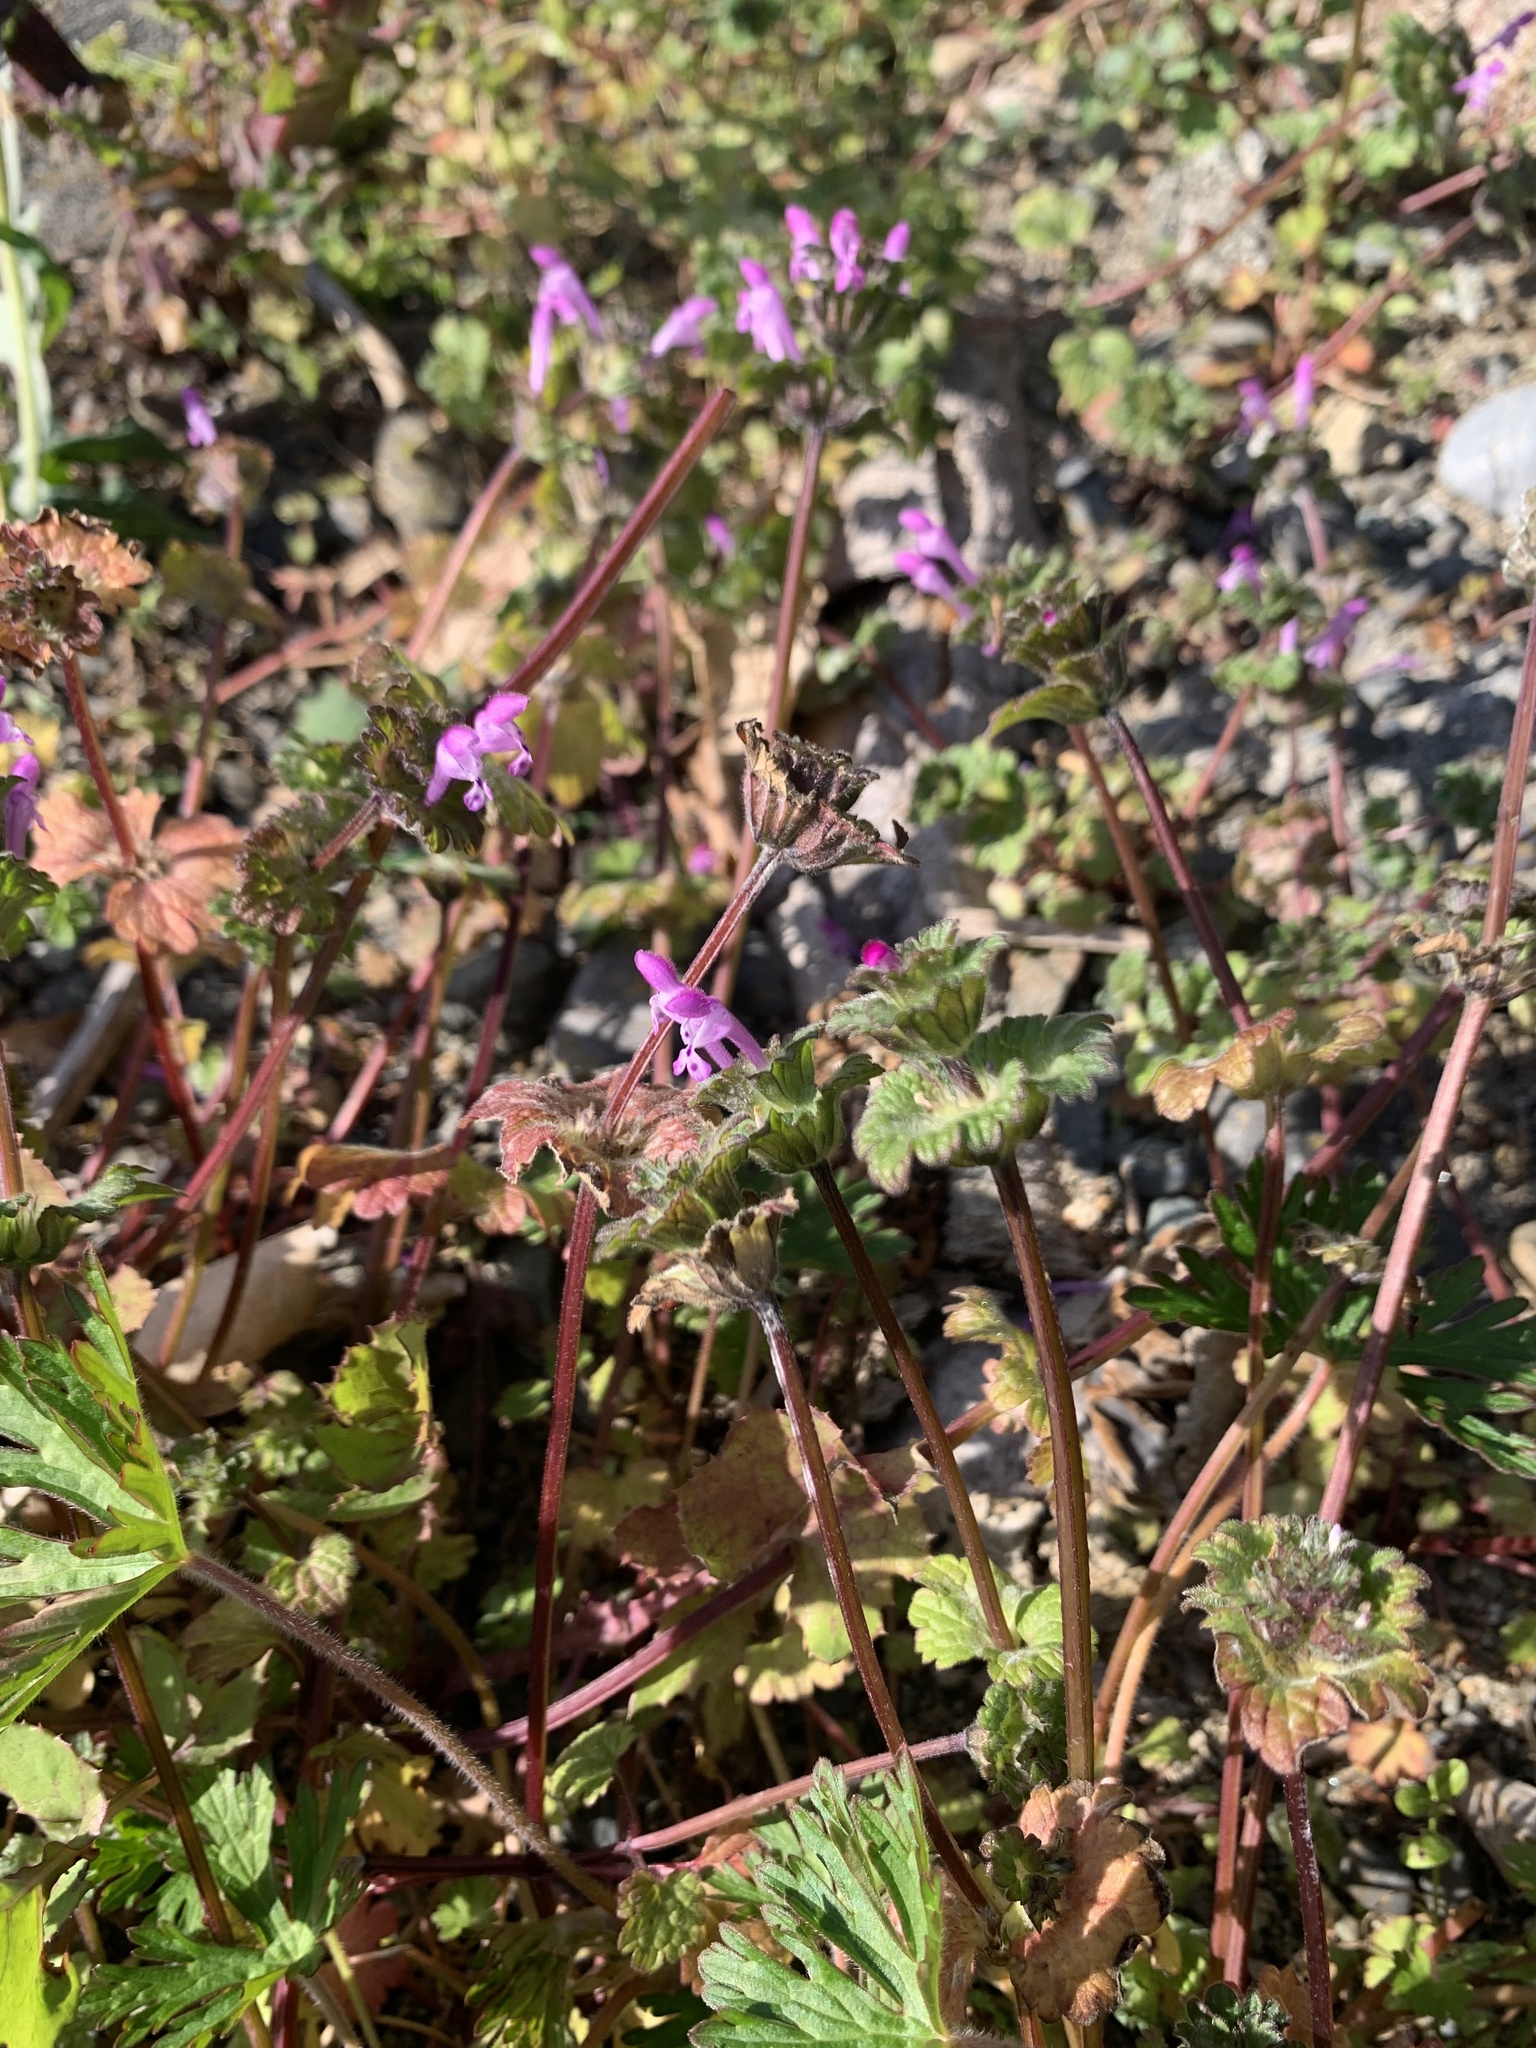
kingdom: Plantae
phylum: Tracheophyta
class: Magnoliopsida
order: Lamiales
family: Lamiaceae
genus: Lamium
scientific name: Lamium amplexicaule
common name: Henbit dead-nettle
